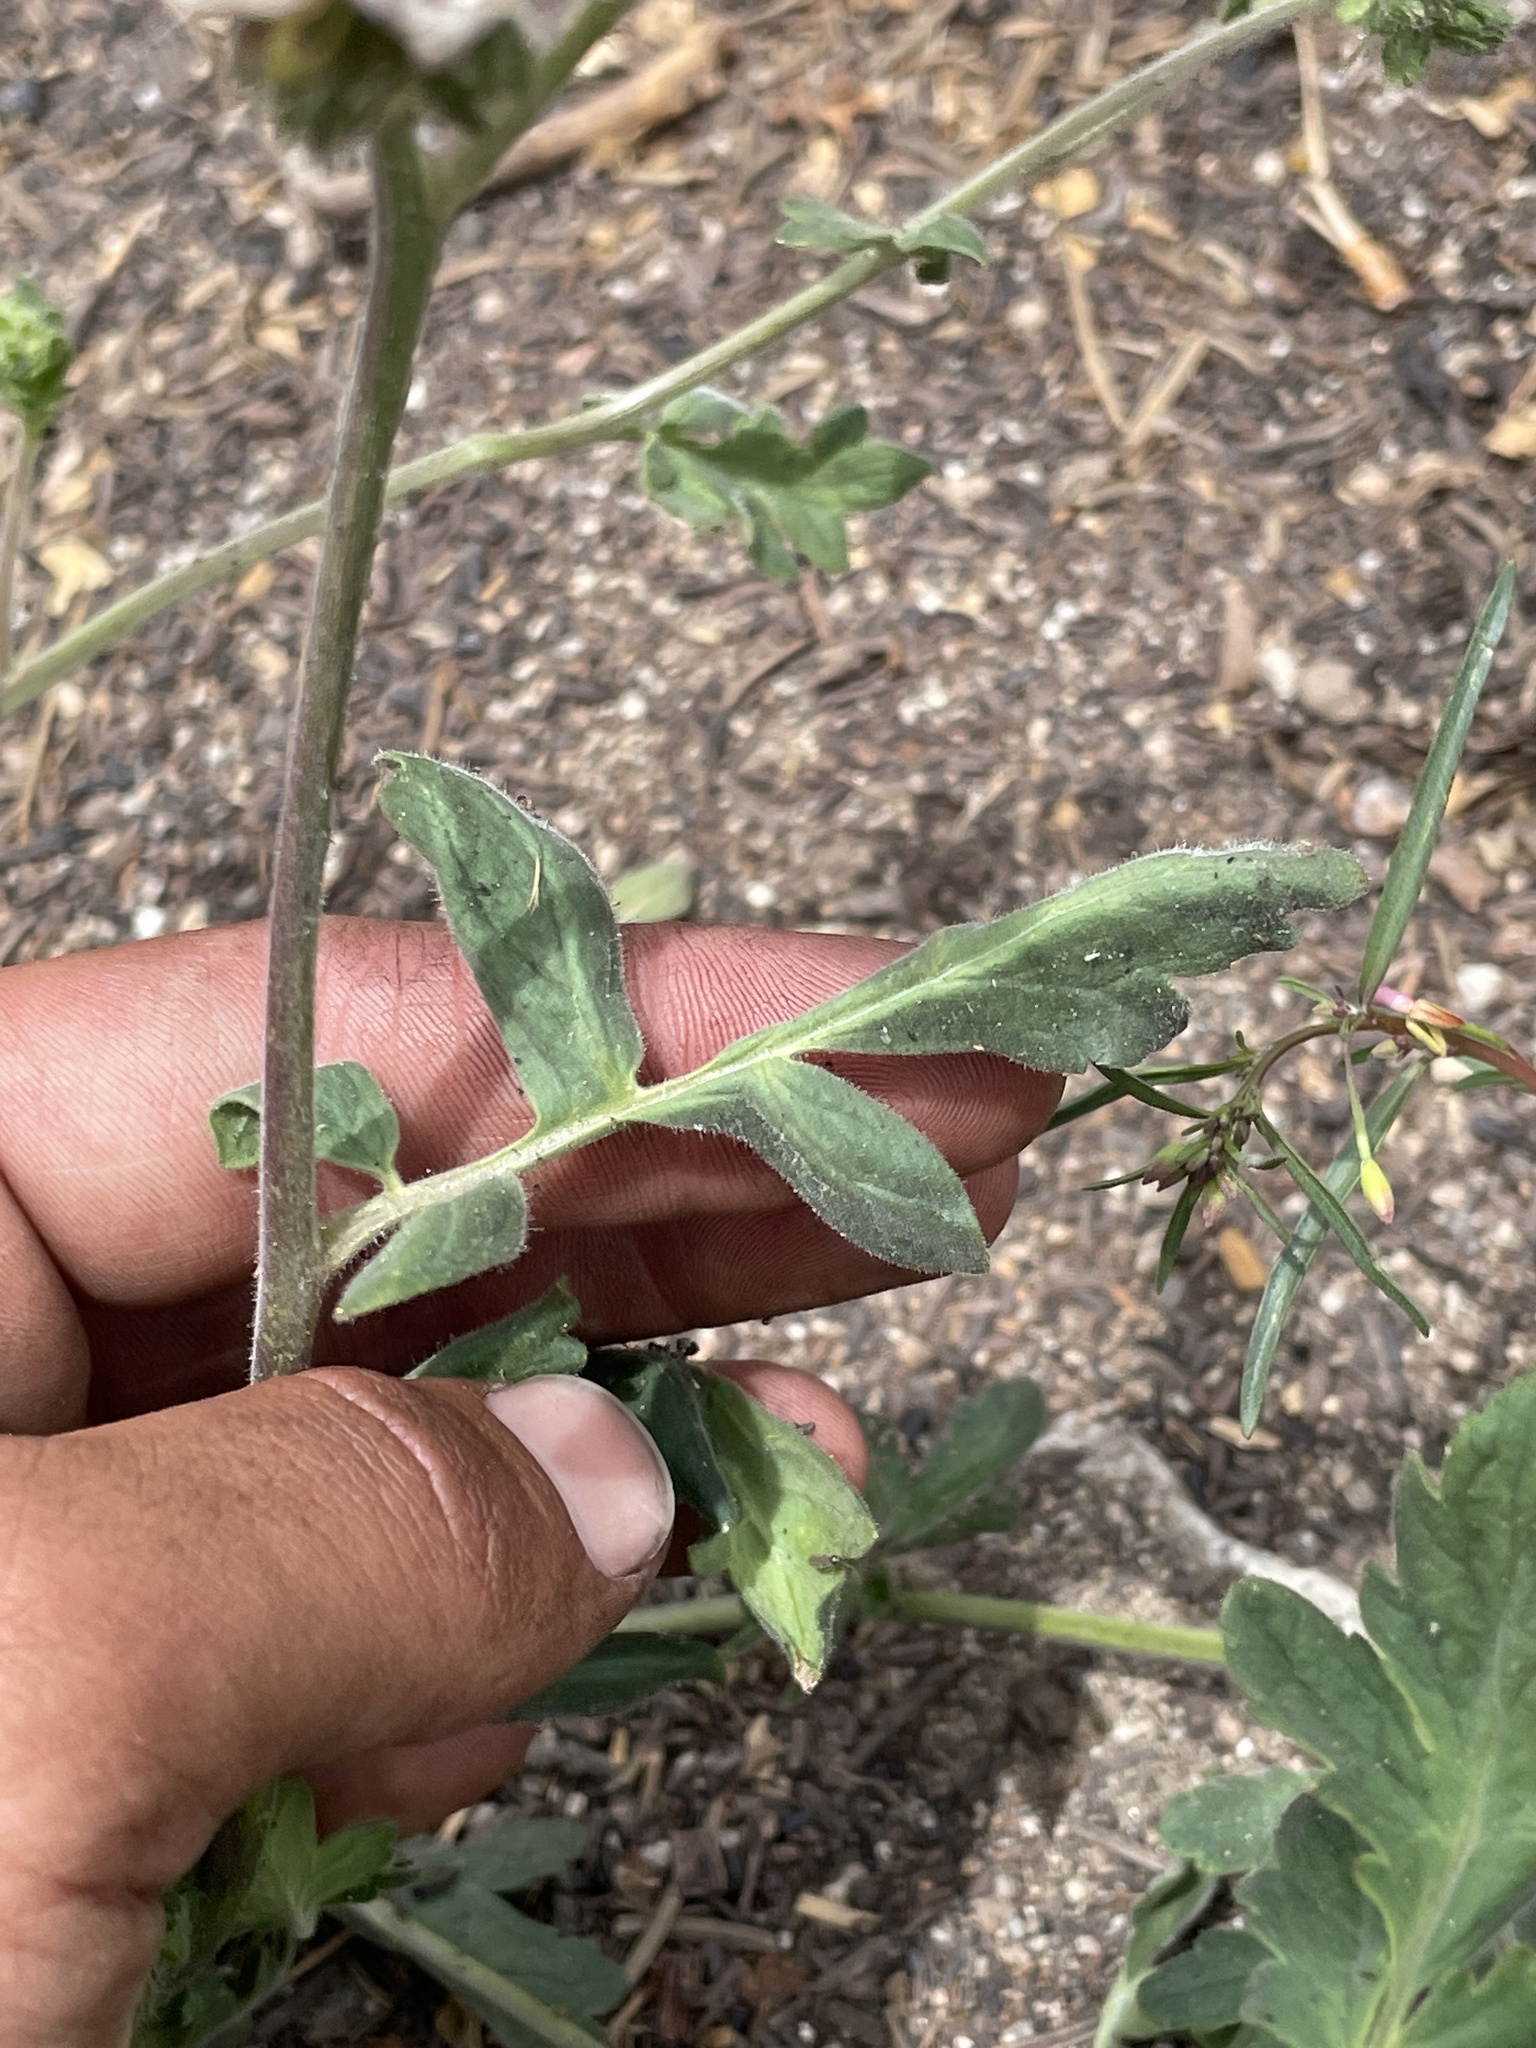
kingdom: Plantae
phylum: Tracheophyta
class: Magnoliopsida
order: Boraginales
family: Hydrophyllaceae
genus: Phacelia
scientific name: Phacelia ramosissima
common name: Branching phacelia
